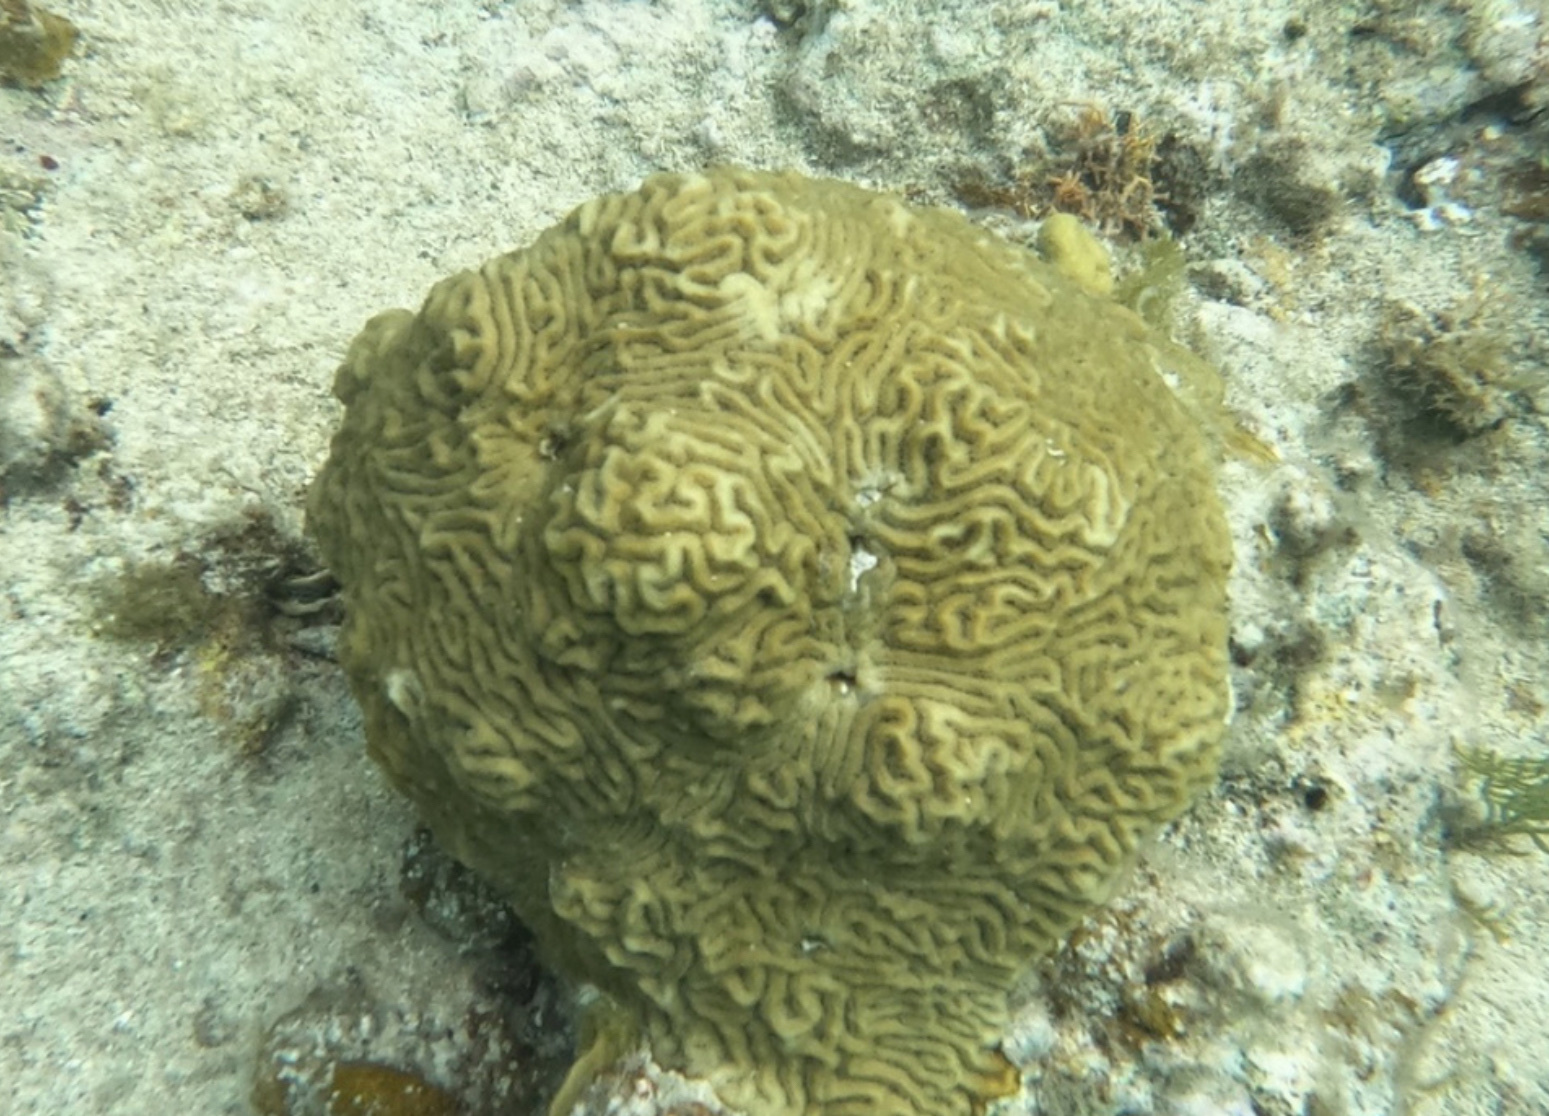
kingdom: Animalia
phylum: Cnidaria
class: Anthozoa
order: Scleractinia
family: Faviidae
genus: Pseudodiploria
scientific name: Pseudodiploria clivosa
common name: Knobby brain coral
